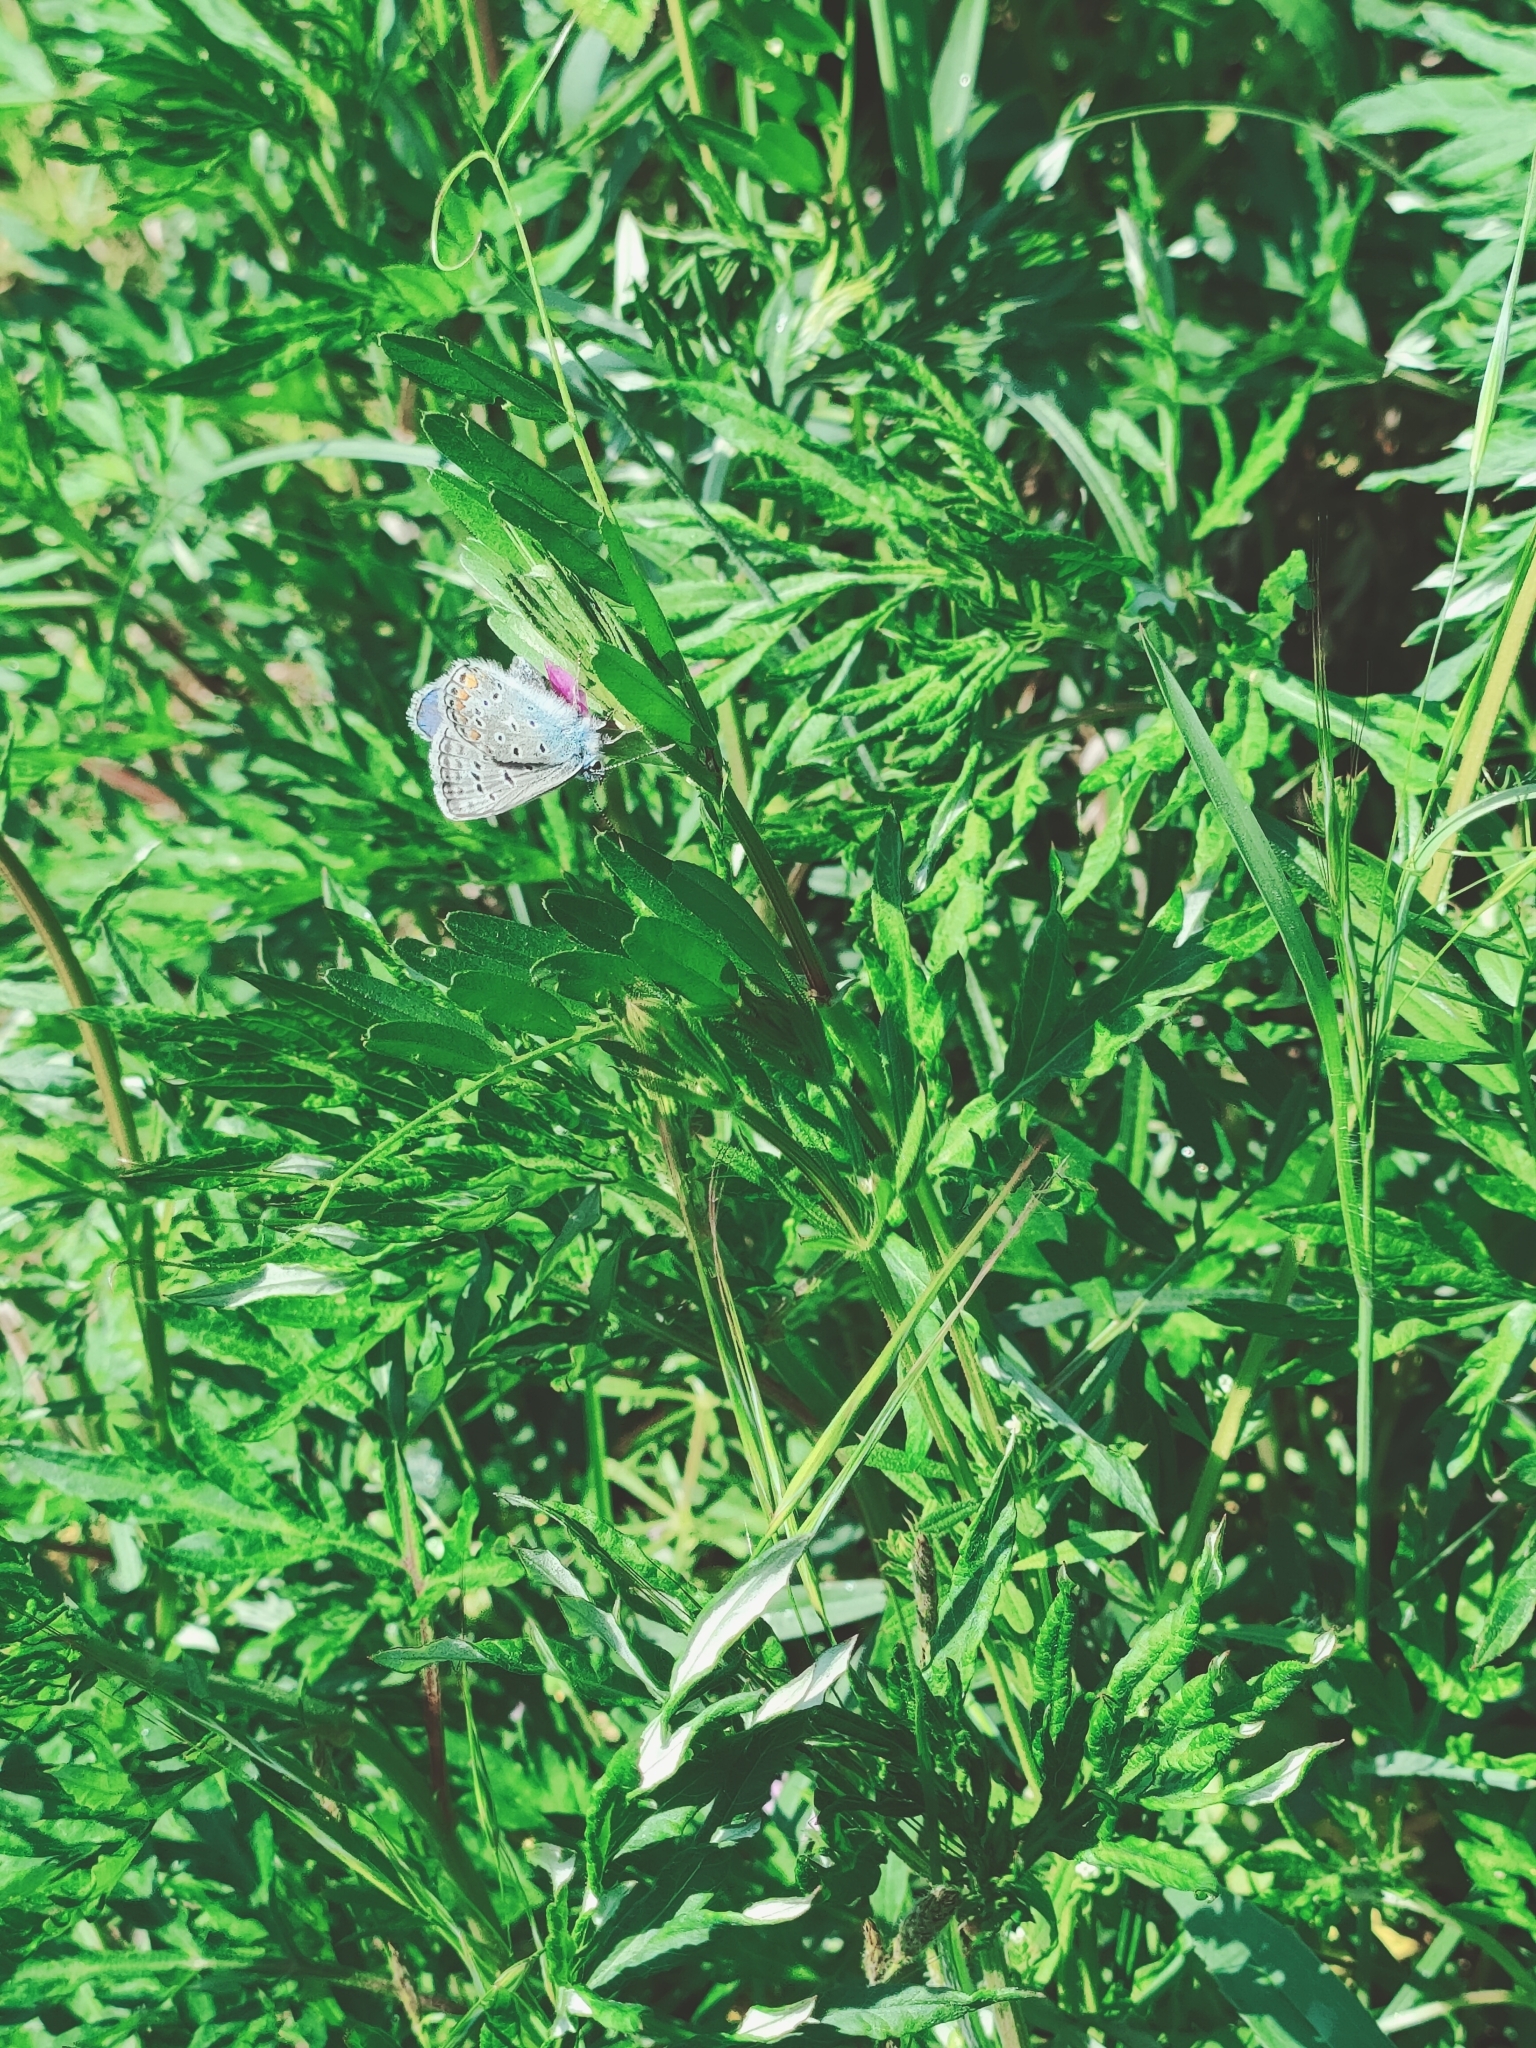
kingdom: Animalia
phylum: Arthropoda
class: Insecta
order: Lepidoptera
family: Lycaenidae
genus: Polyommatus
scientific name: Polyommatus icarus
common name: Common blue
